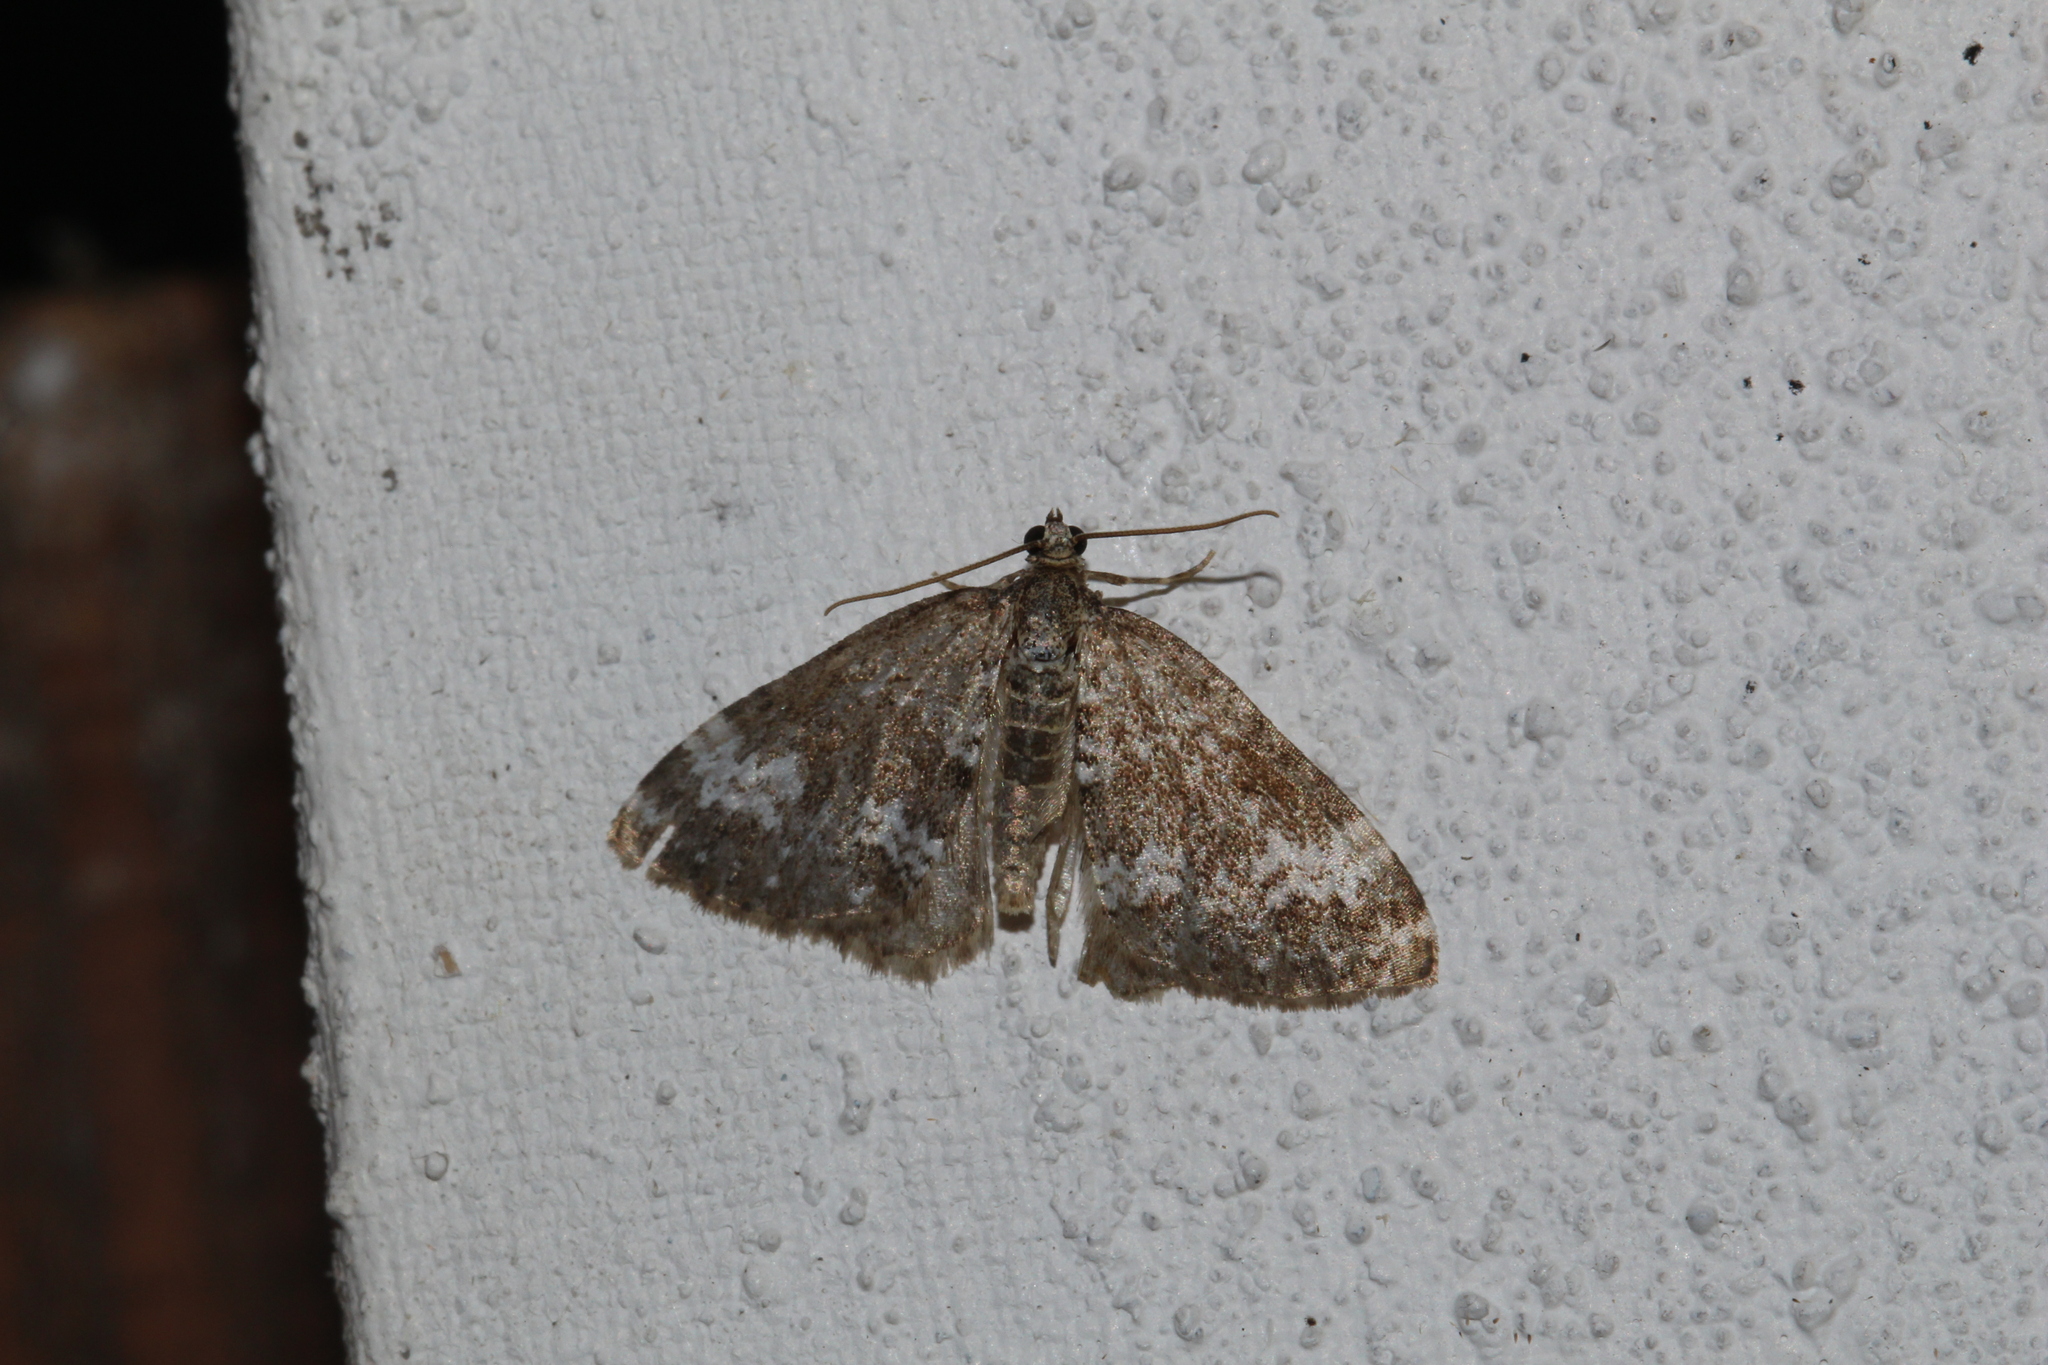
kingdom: Animalia
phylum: Arthropoda
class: Insecta
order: Lepidoptera
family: Geometridae
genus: Perizoma
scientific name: Perizoma alchemillata
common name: Small rivulet
